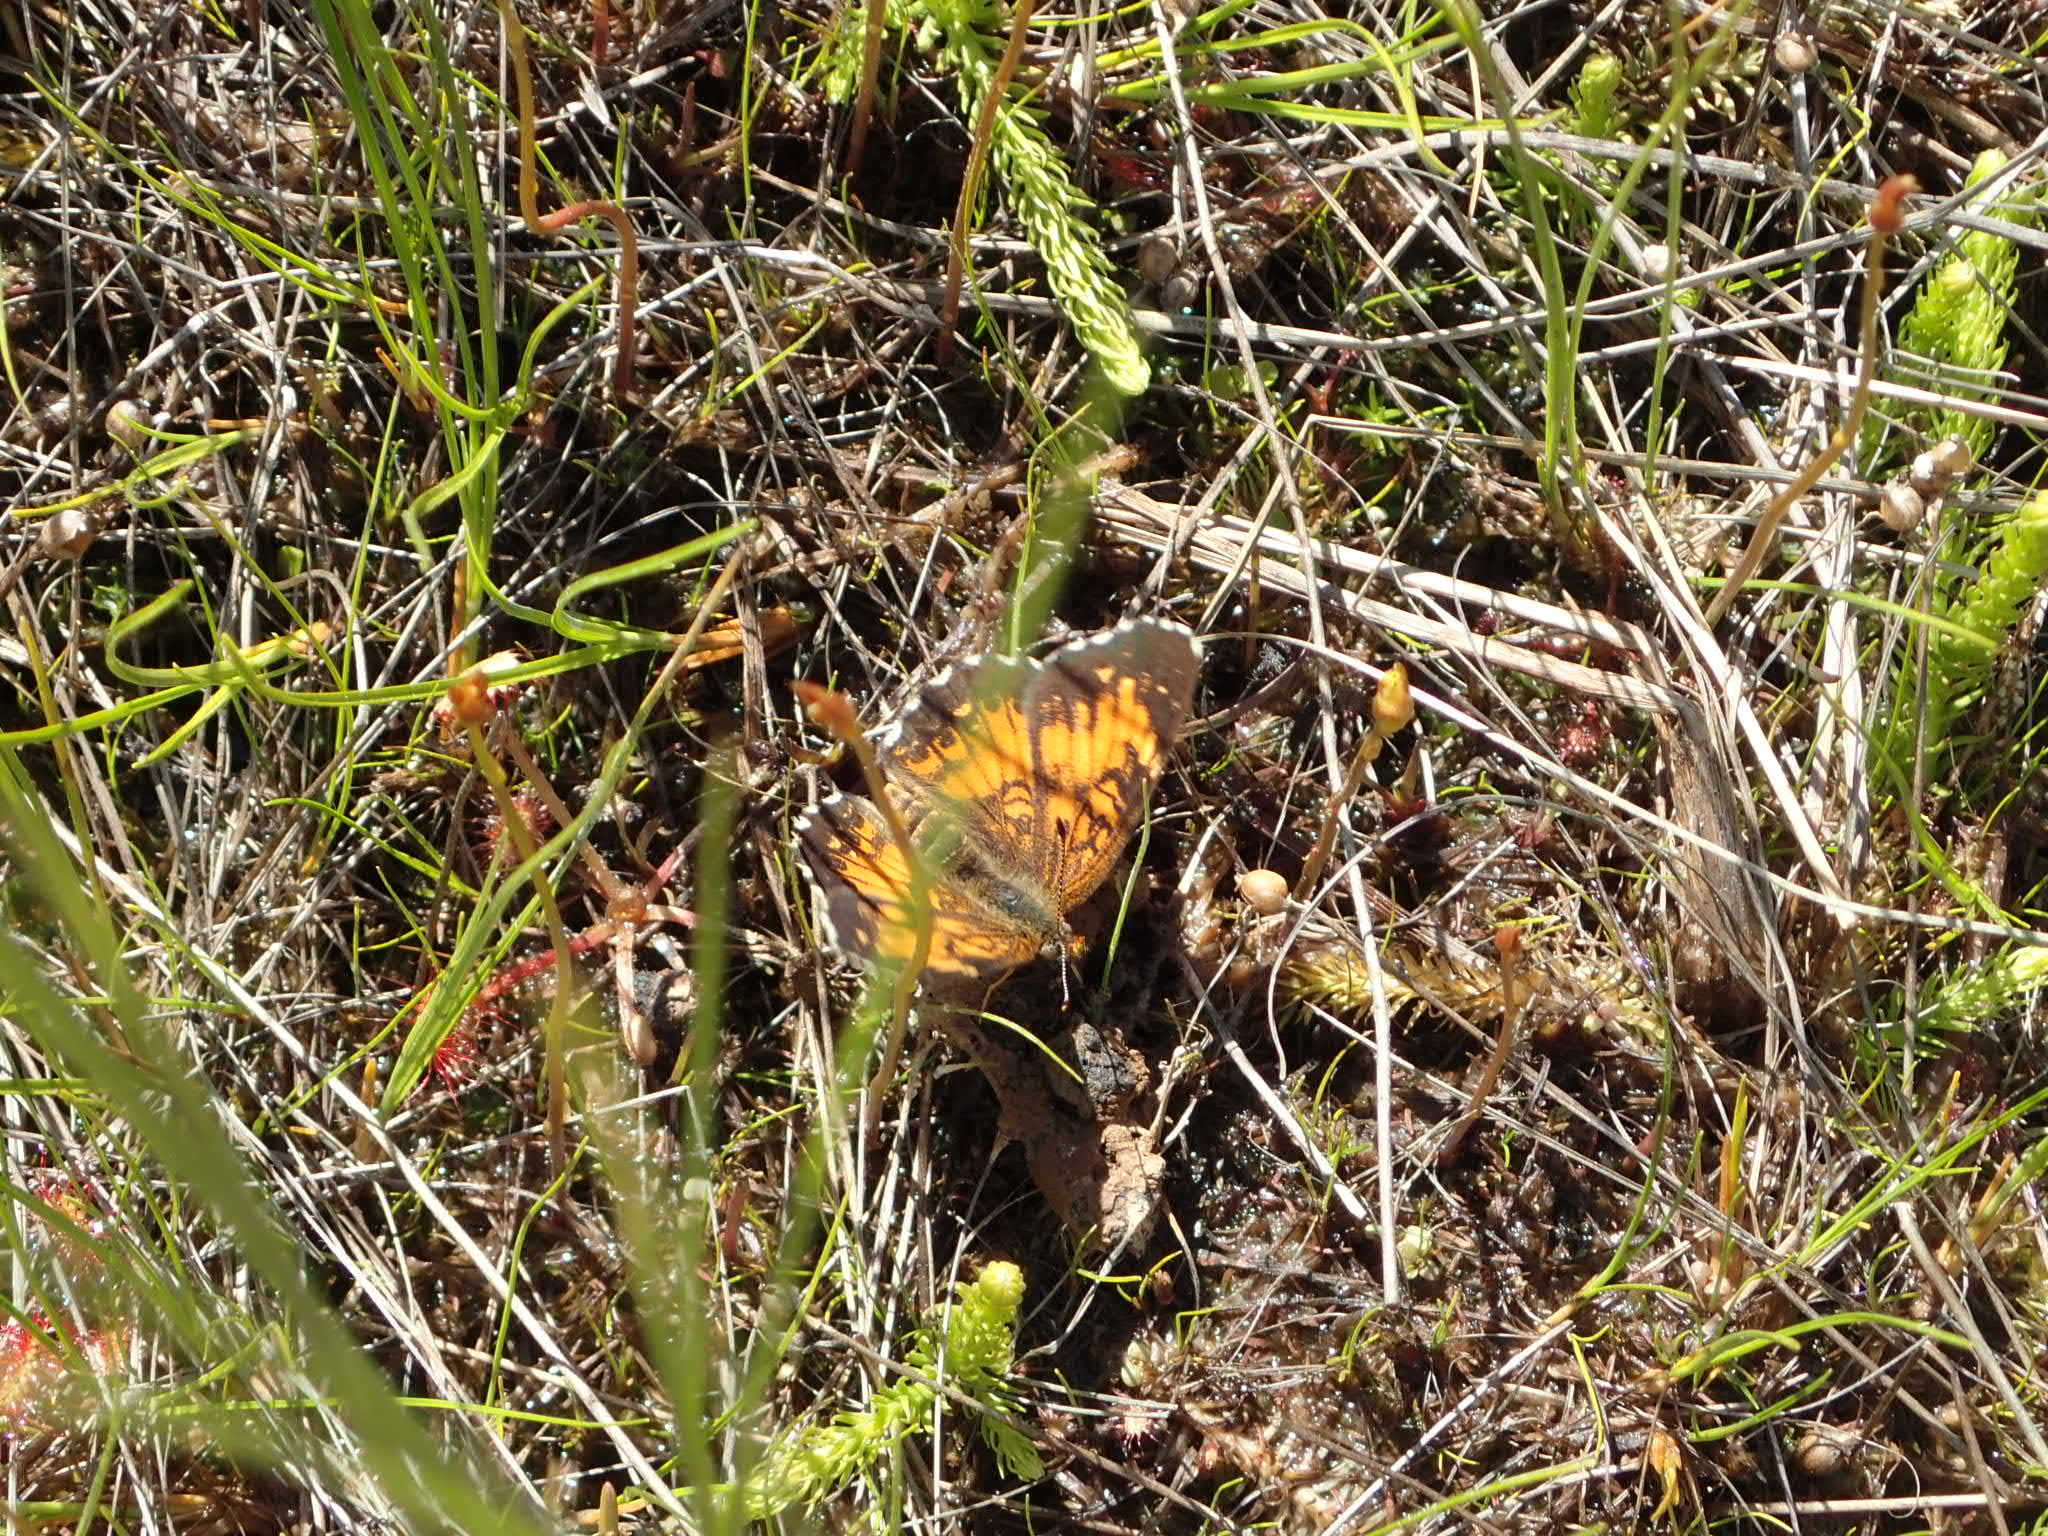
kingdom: Animalia
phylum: Arthropoda
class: Insecta
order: Lepidoptera
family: Nymphalidae
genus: Chlosyne
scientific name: Chlosyne harrisii
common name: Harris's checkerspot
